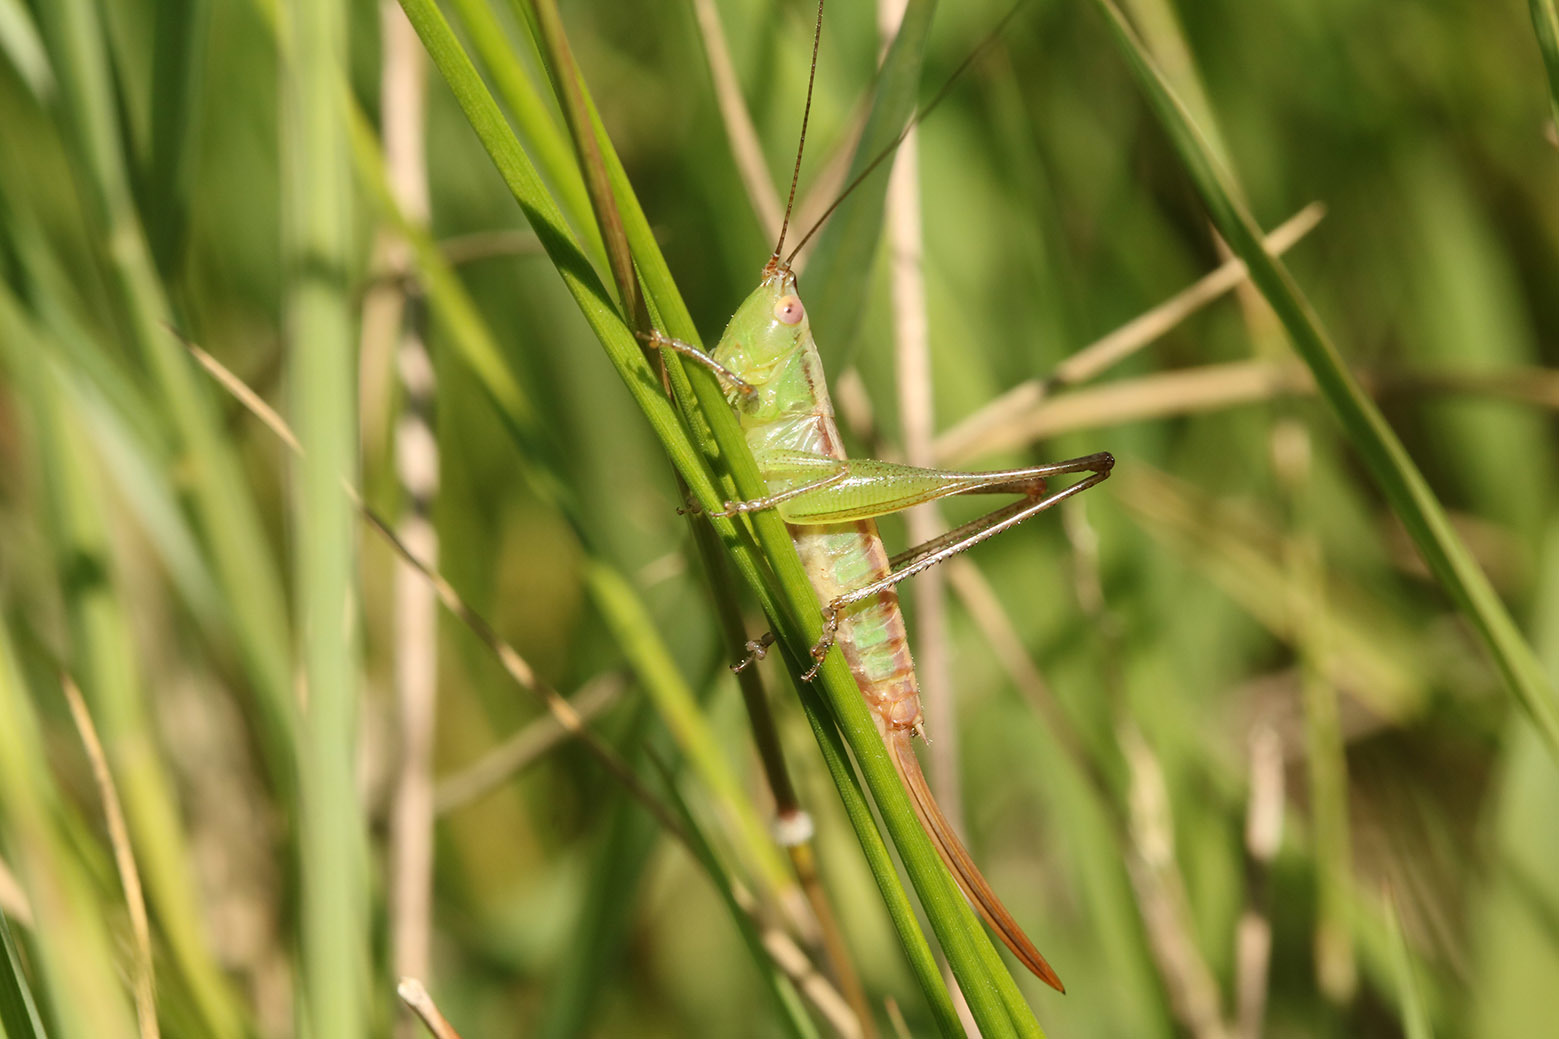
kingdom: Animalia
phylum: Arthropoda
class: Insecta
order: Orthoptera
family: Tettigoniidae
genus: Conocephalus
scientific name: Conocephalus doryphorus
